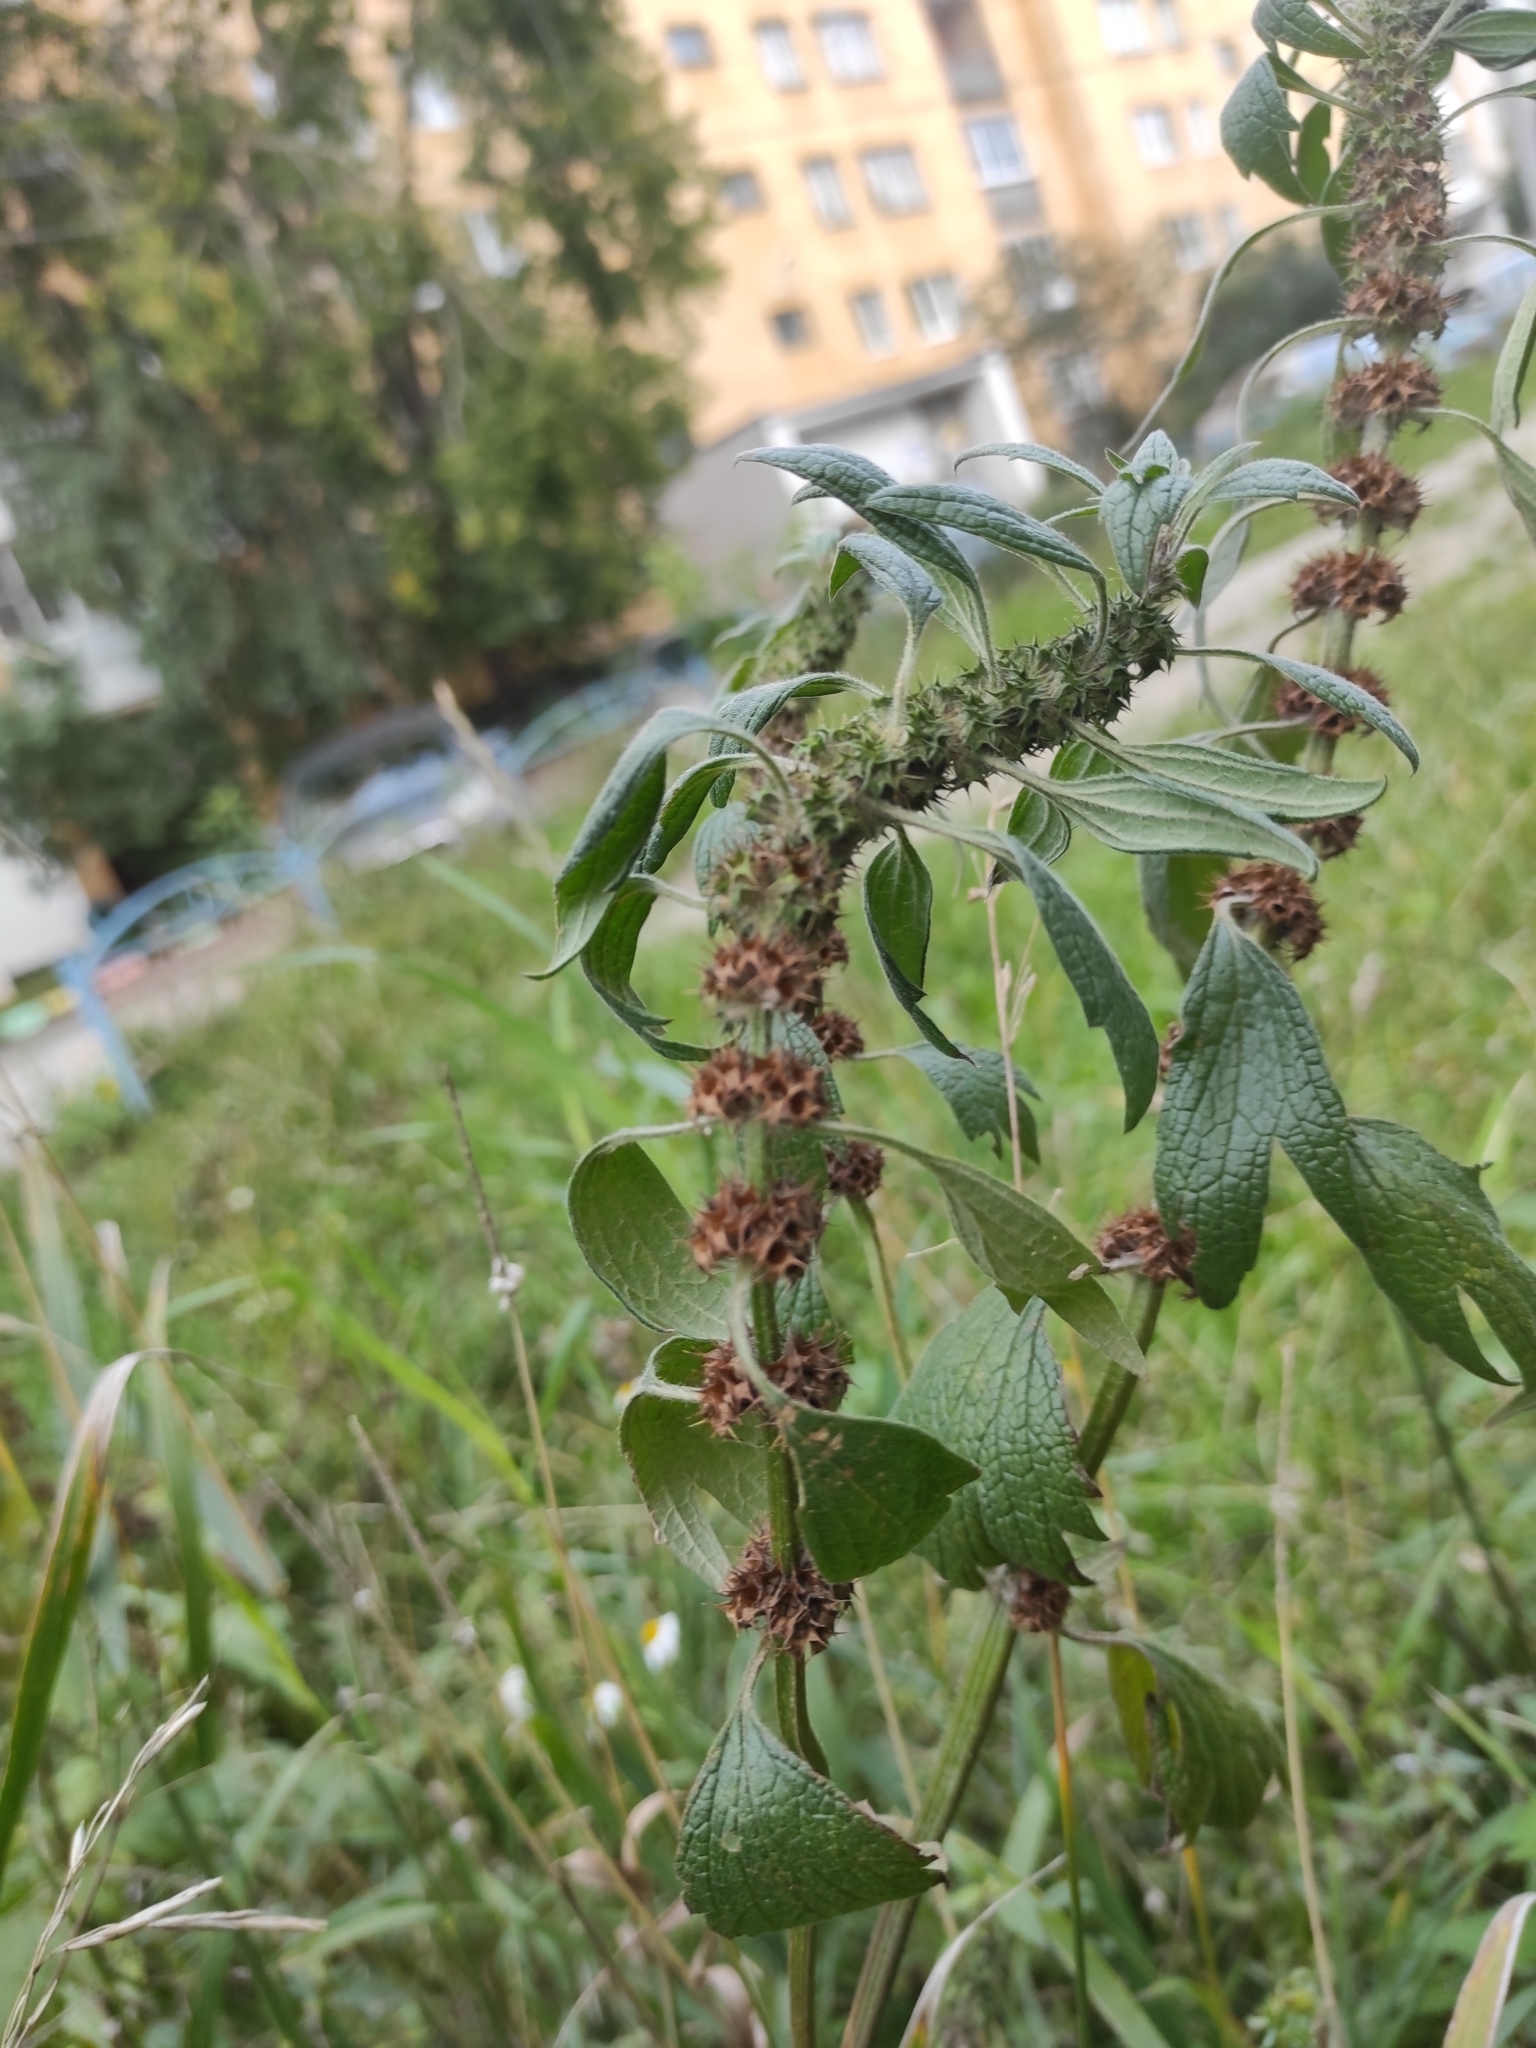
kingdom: Plantae
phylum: Tracheophyta
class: Magnoliopsida
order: Lamiales
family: Lamiaceae
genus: Leonurus
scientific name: Leonurus quinquelobatus
